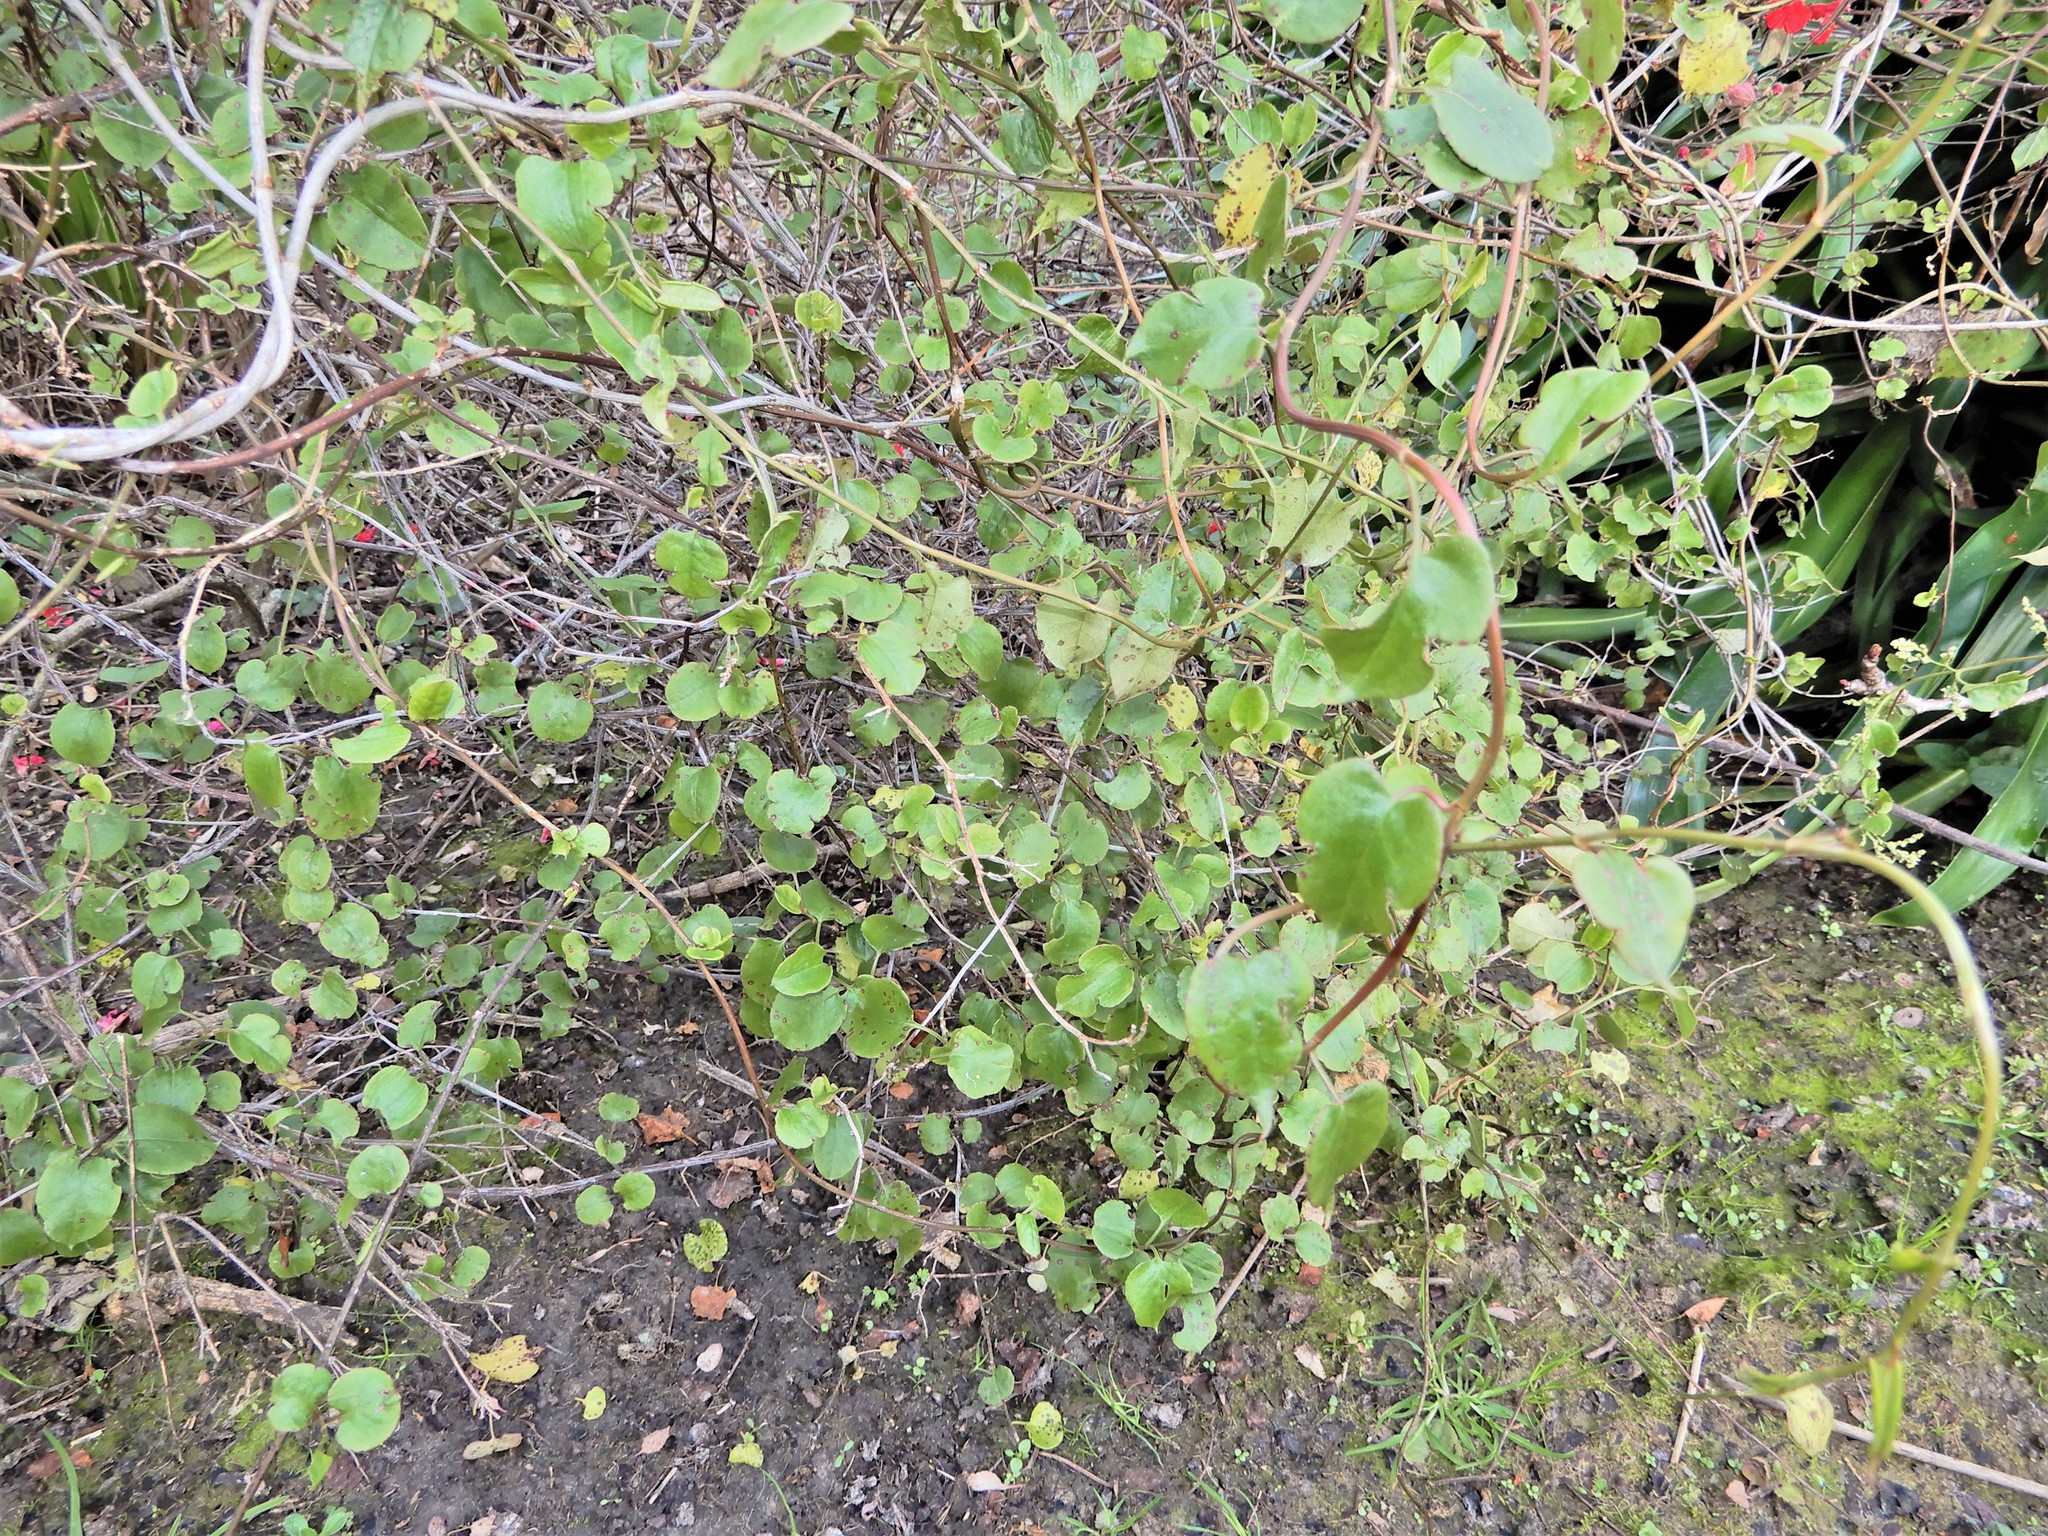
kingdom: Plantae
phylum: Tracheophyta
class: Magnoliopsida
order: Caryophyllales
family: Polygonaceae
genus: Muehlenbeckia
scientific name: Muehlenbeckia australis
